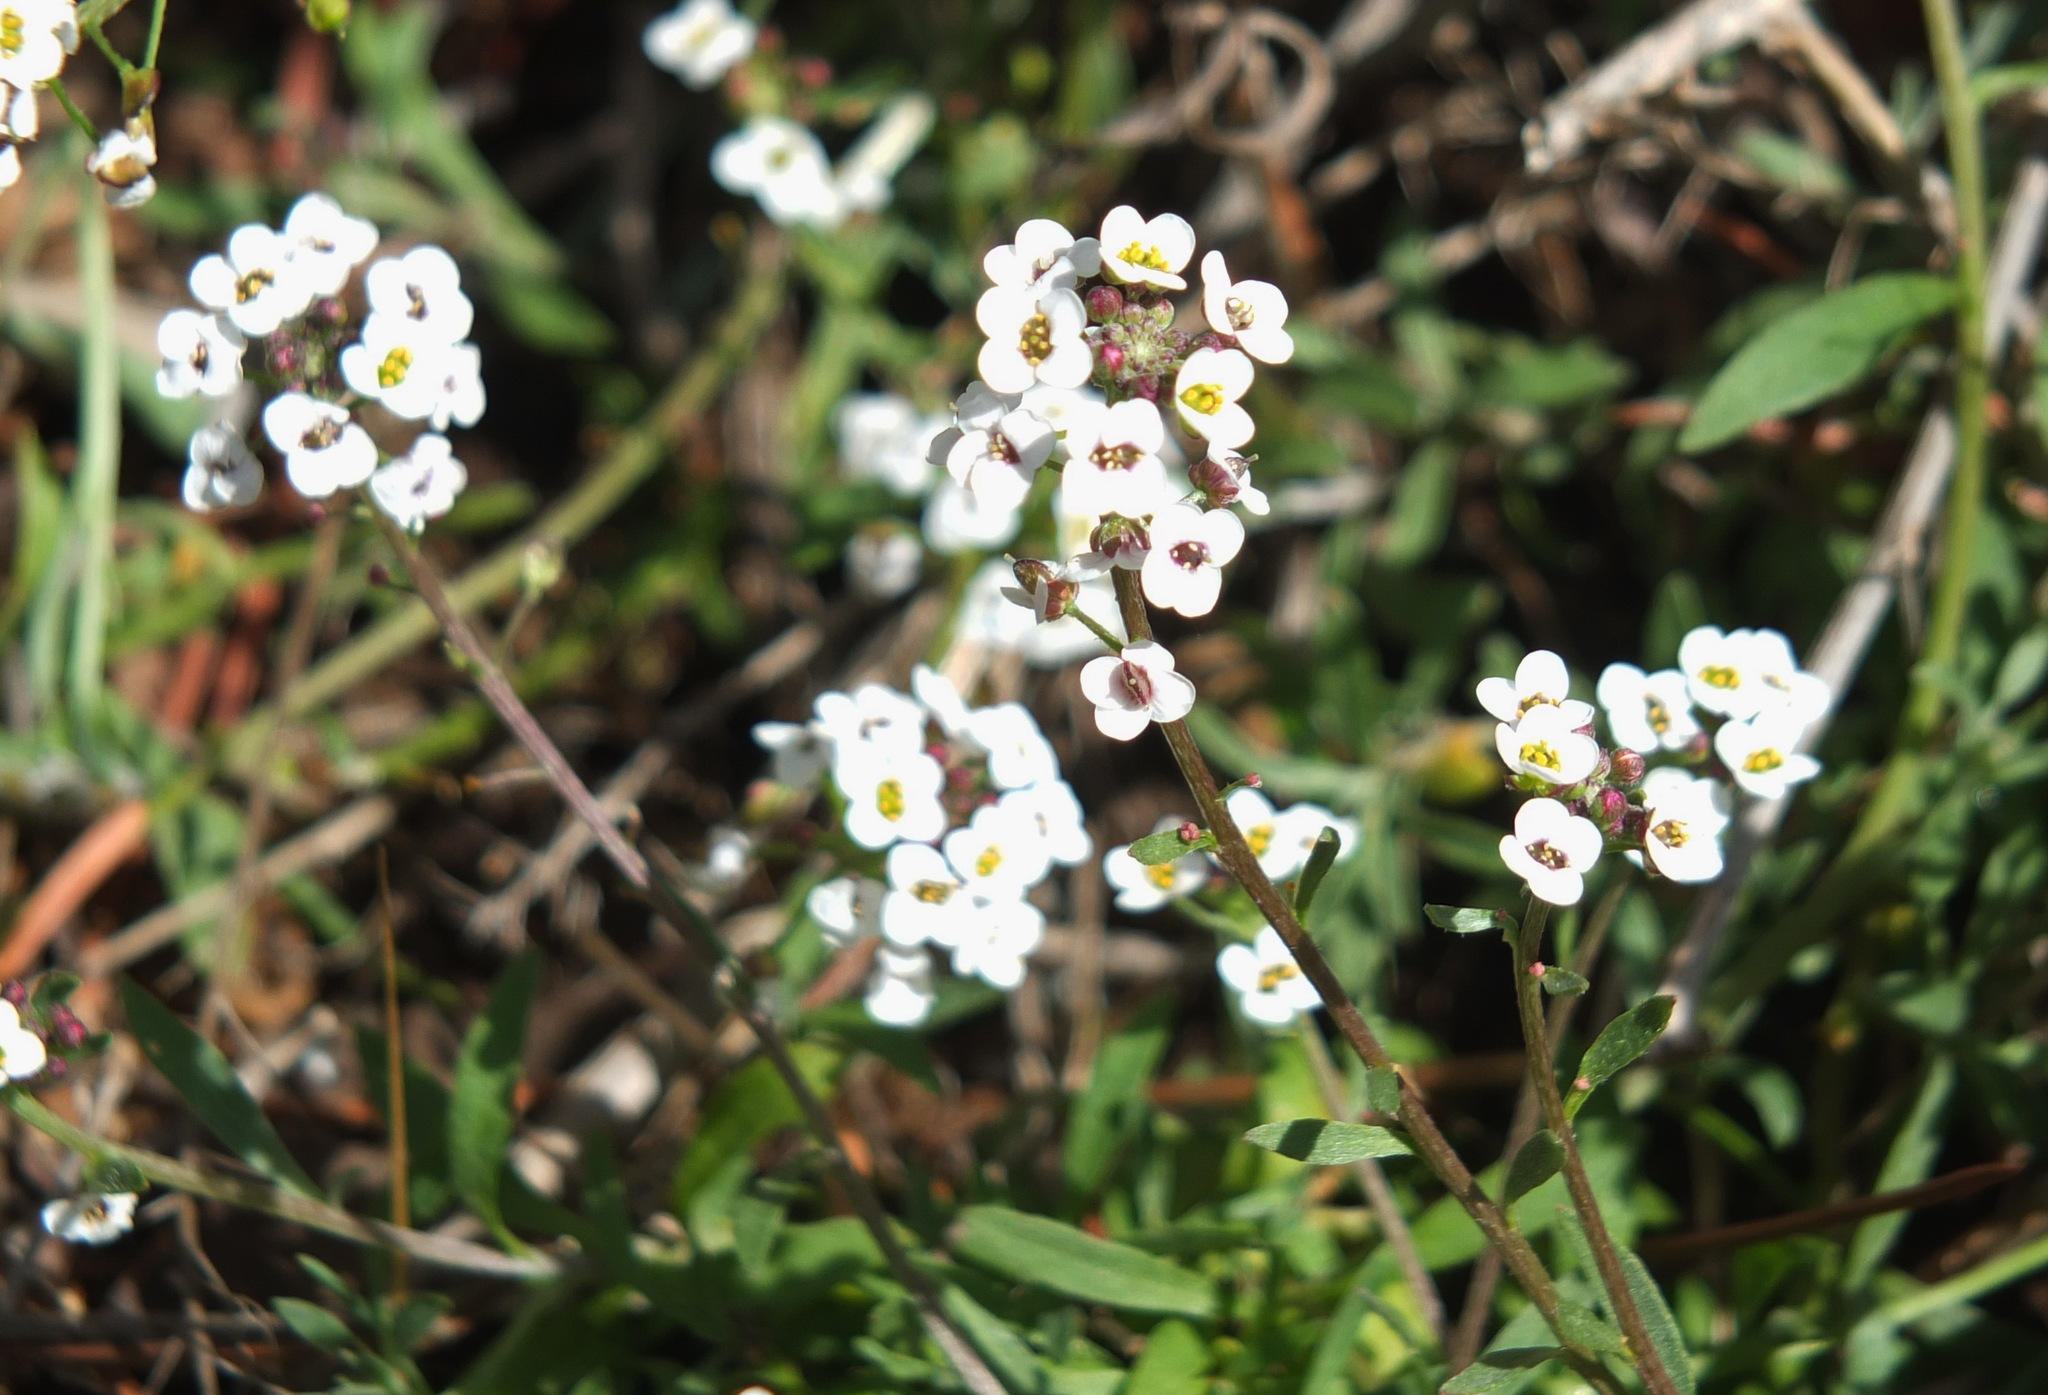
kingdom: Plantae
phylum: Tracheophyta
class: Magnoliopsida
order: Brassicales
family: Brassicaceae
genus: Lobularia
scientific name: Lobularia maritima
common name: Sweet alison
